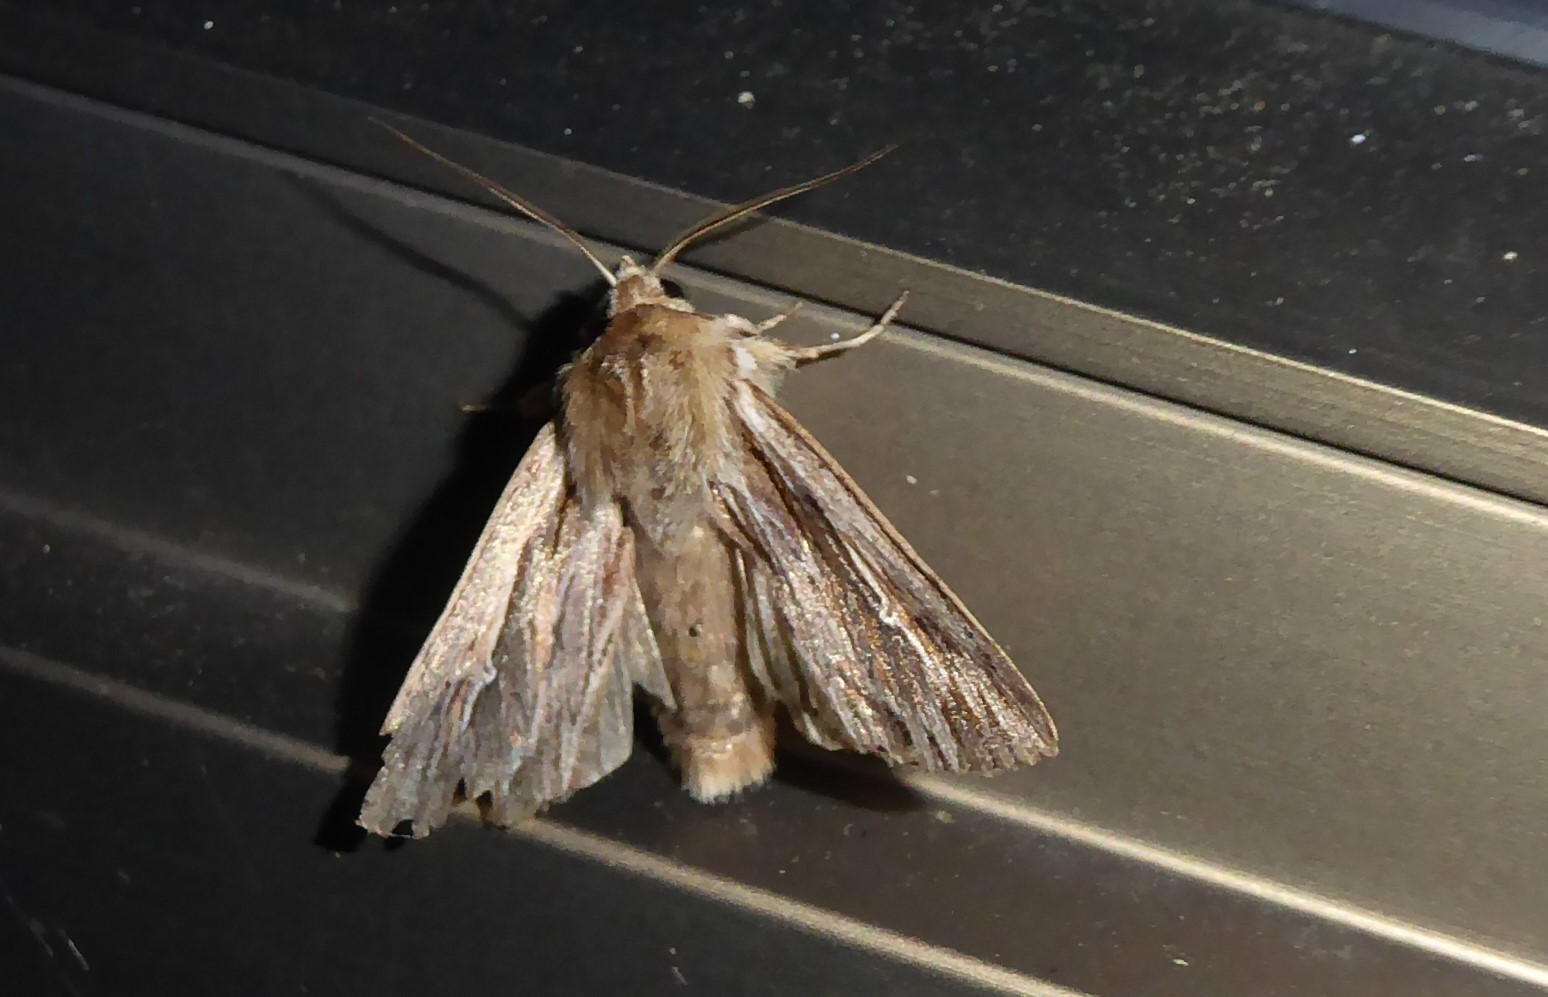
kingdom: Animalia
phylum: Arthropoda
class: Insecta
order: Lepidoptera
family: Noctuidae
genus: Persectania
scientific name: Persectania aversa
